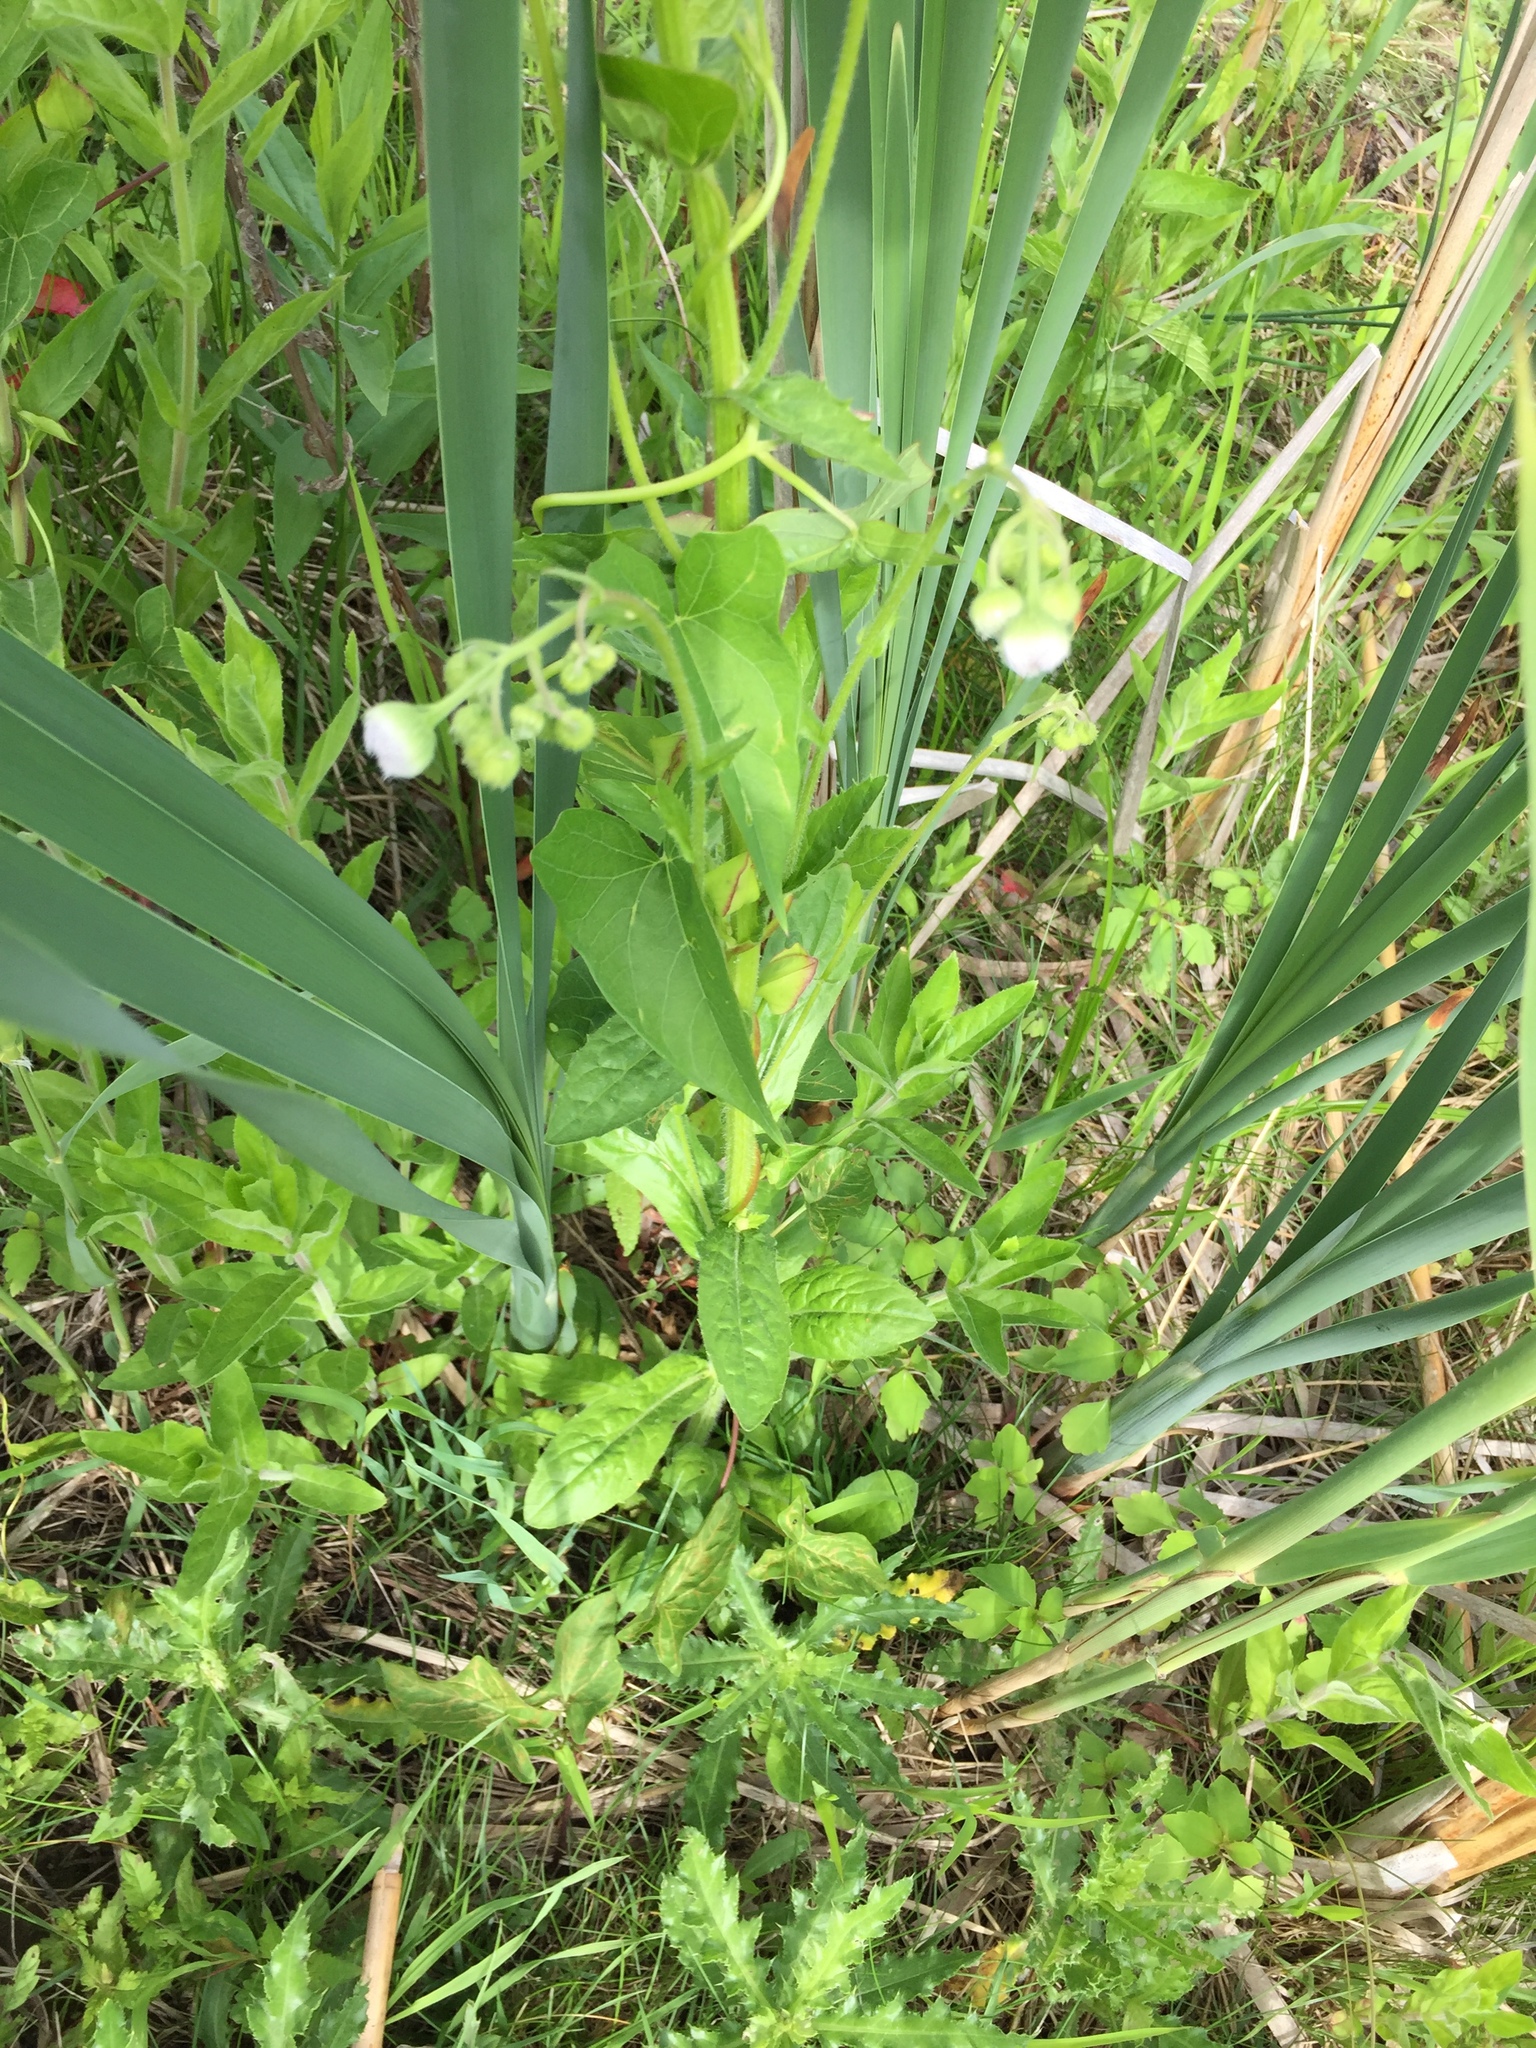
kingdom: Plantae
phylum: Tracheophyta
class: Magnoliopsida
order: Asterales
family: Asteraceae
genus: Erigeron
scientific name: Erigeron philadelphicus
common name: Robin's-plantain
